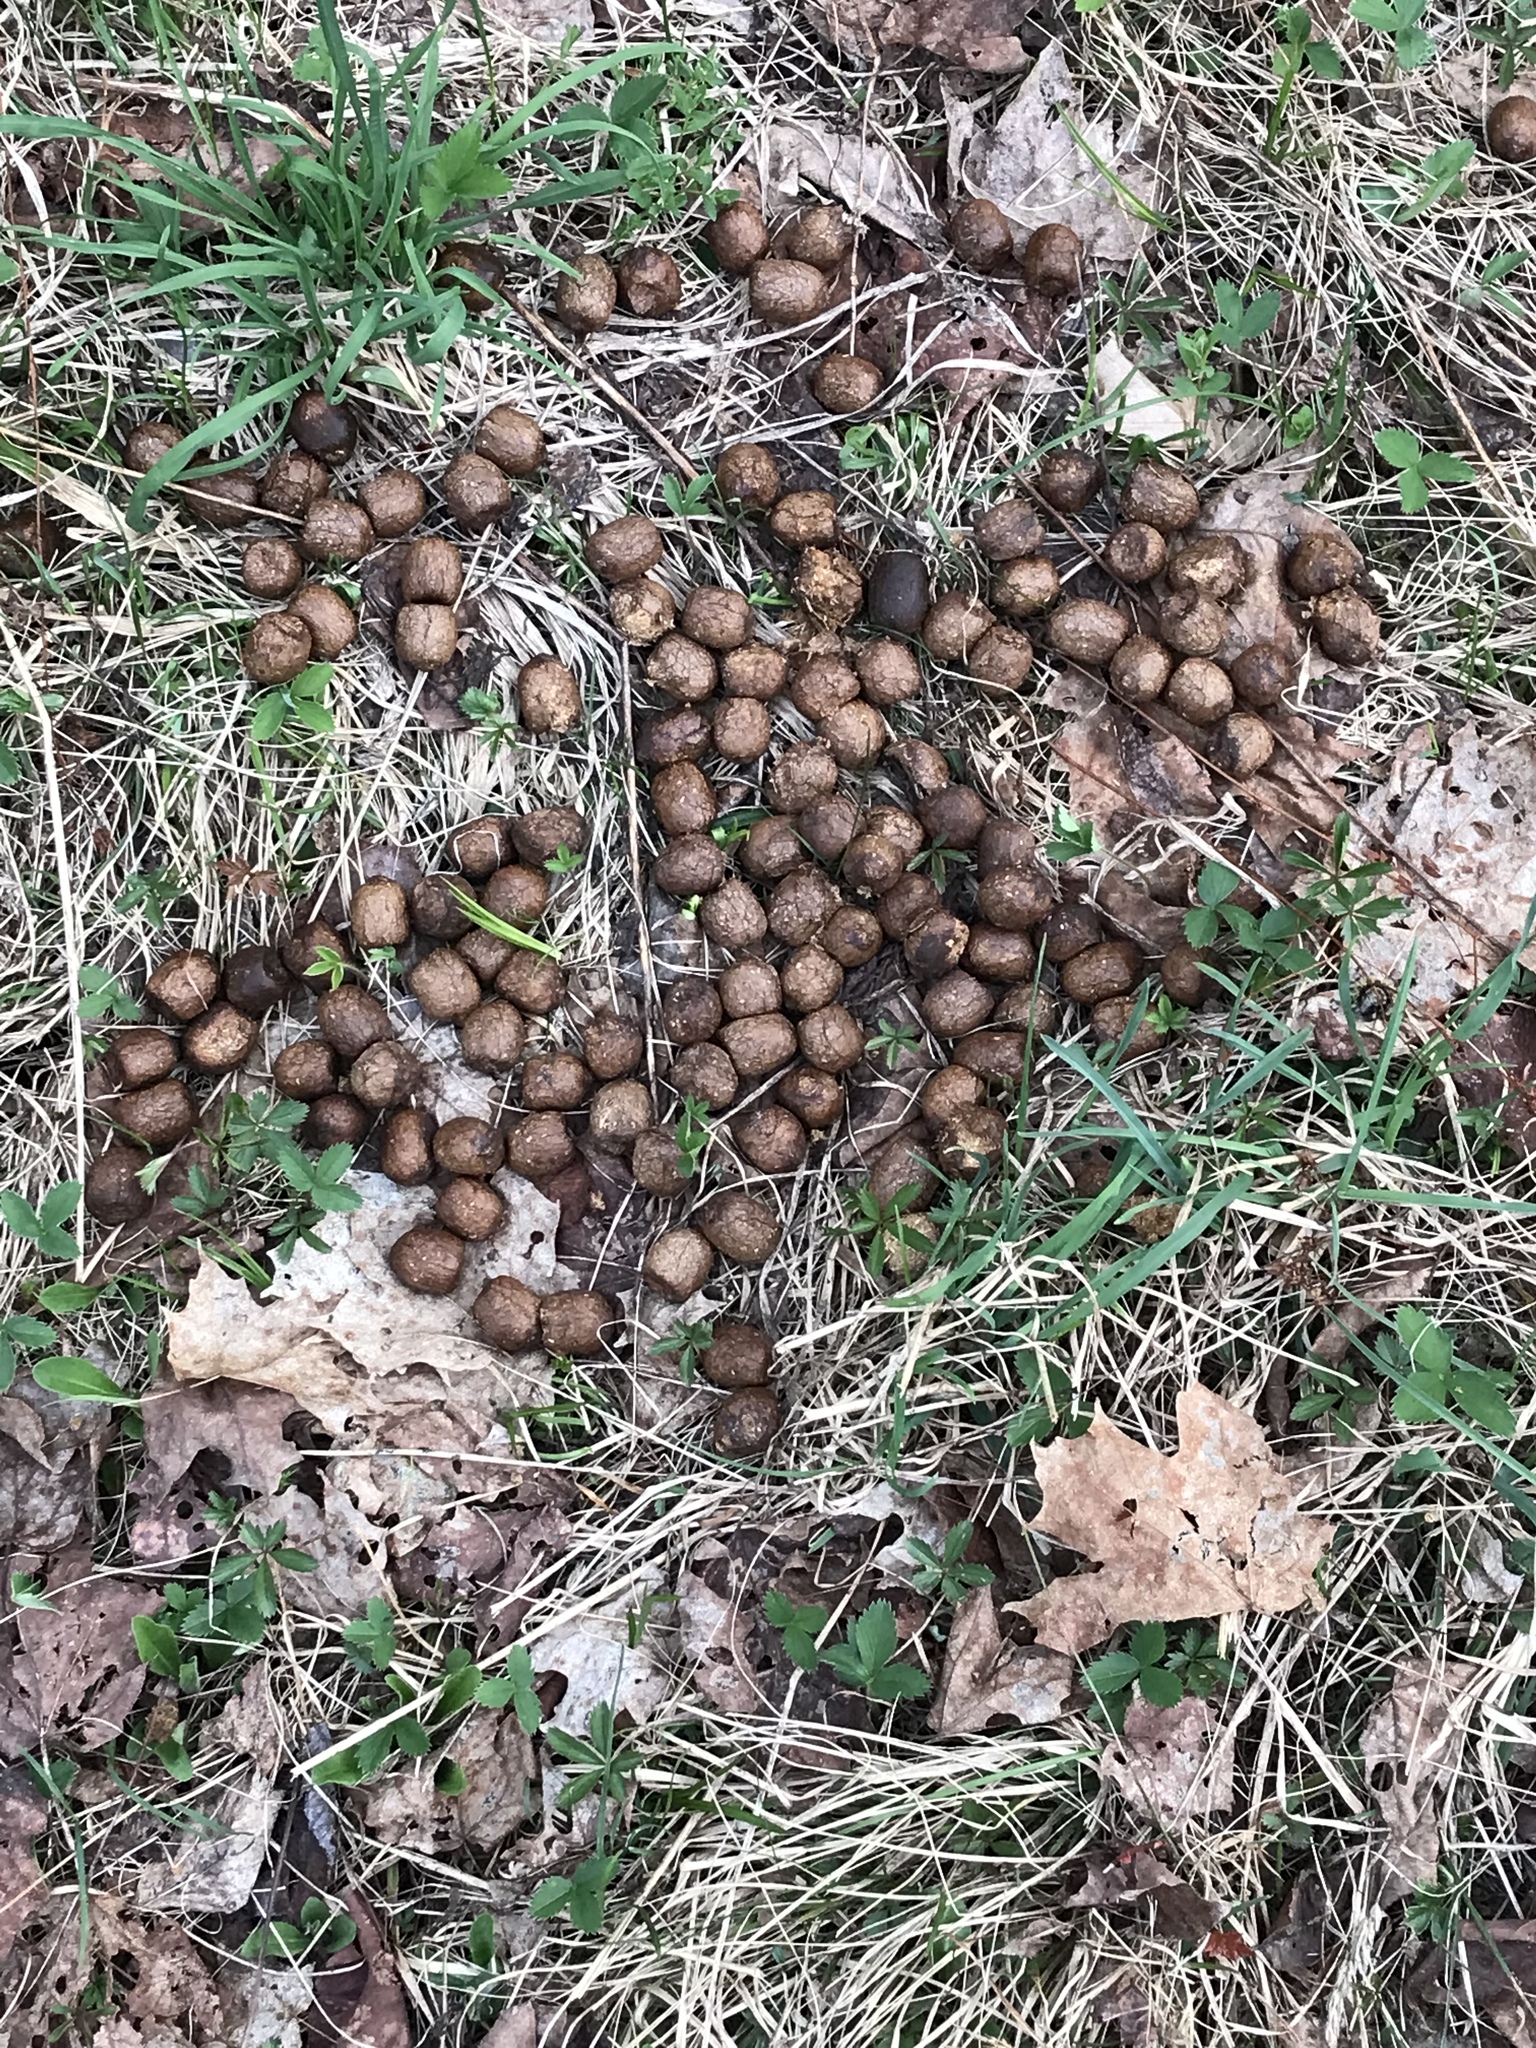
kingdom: Animalia
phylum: Chordata
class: Mammalia
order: Artiodactyla
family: Cervidae
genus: Alces
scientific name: Alces alces
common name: Moose
